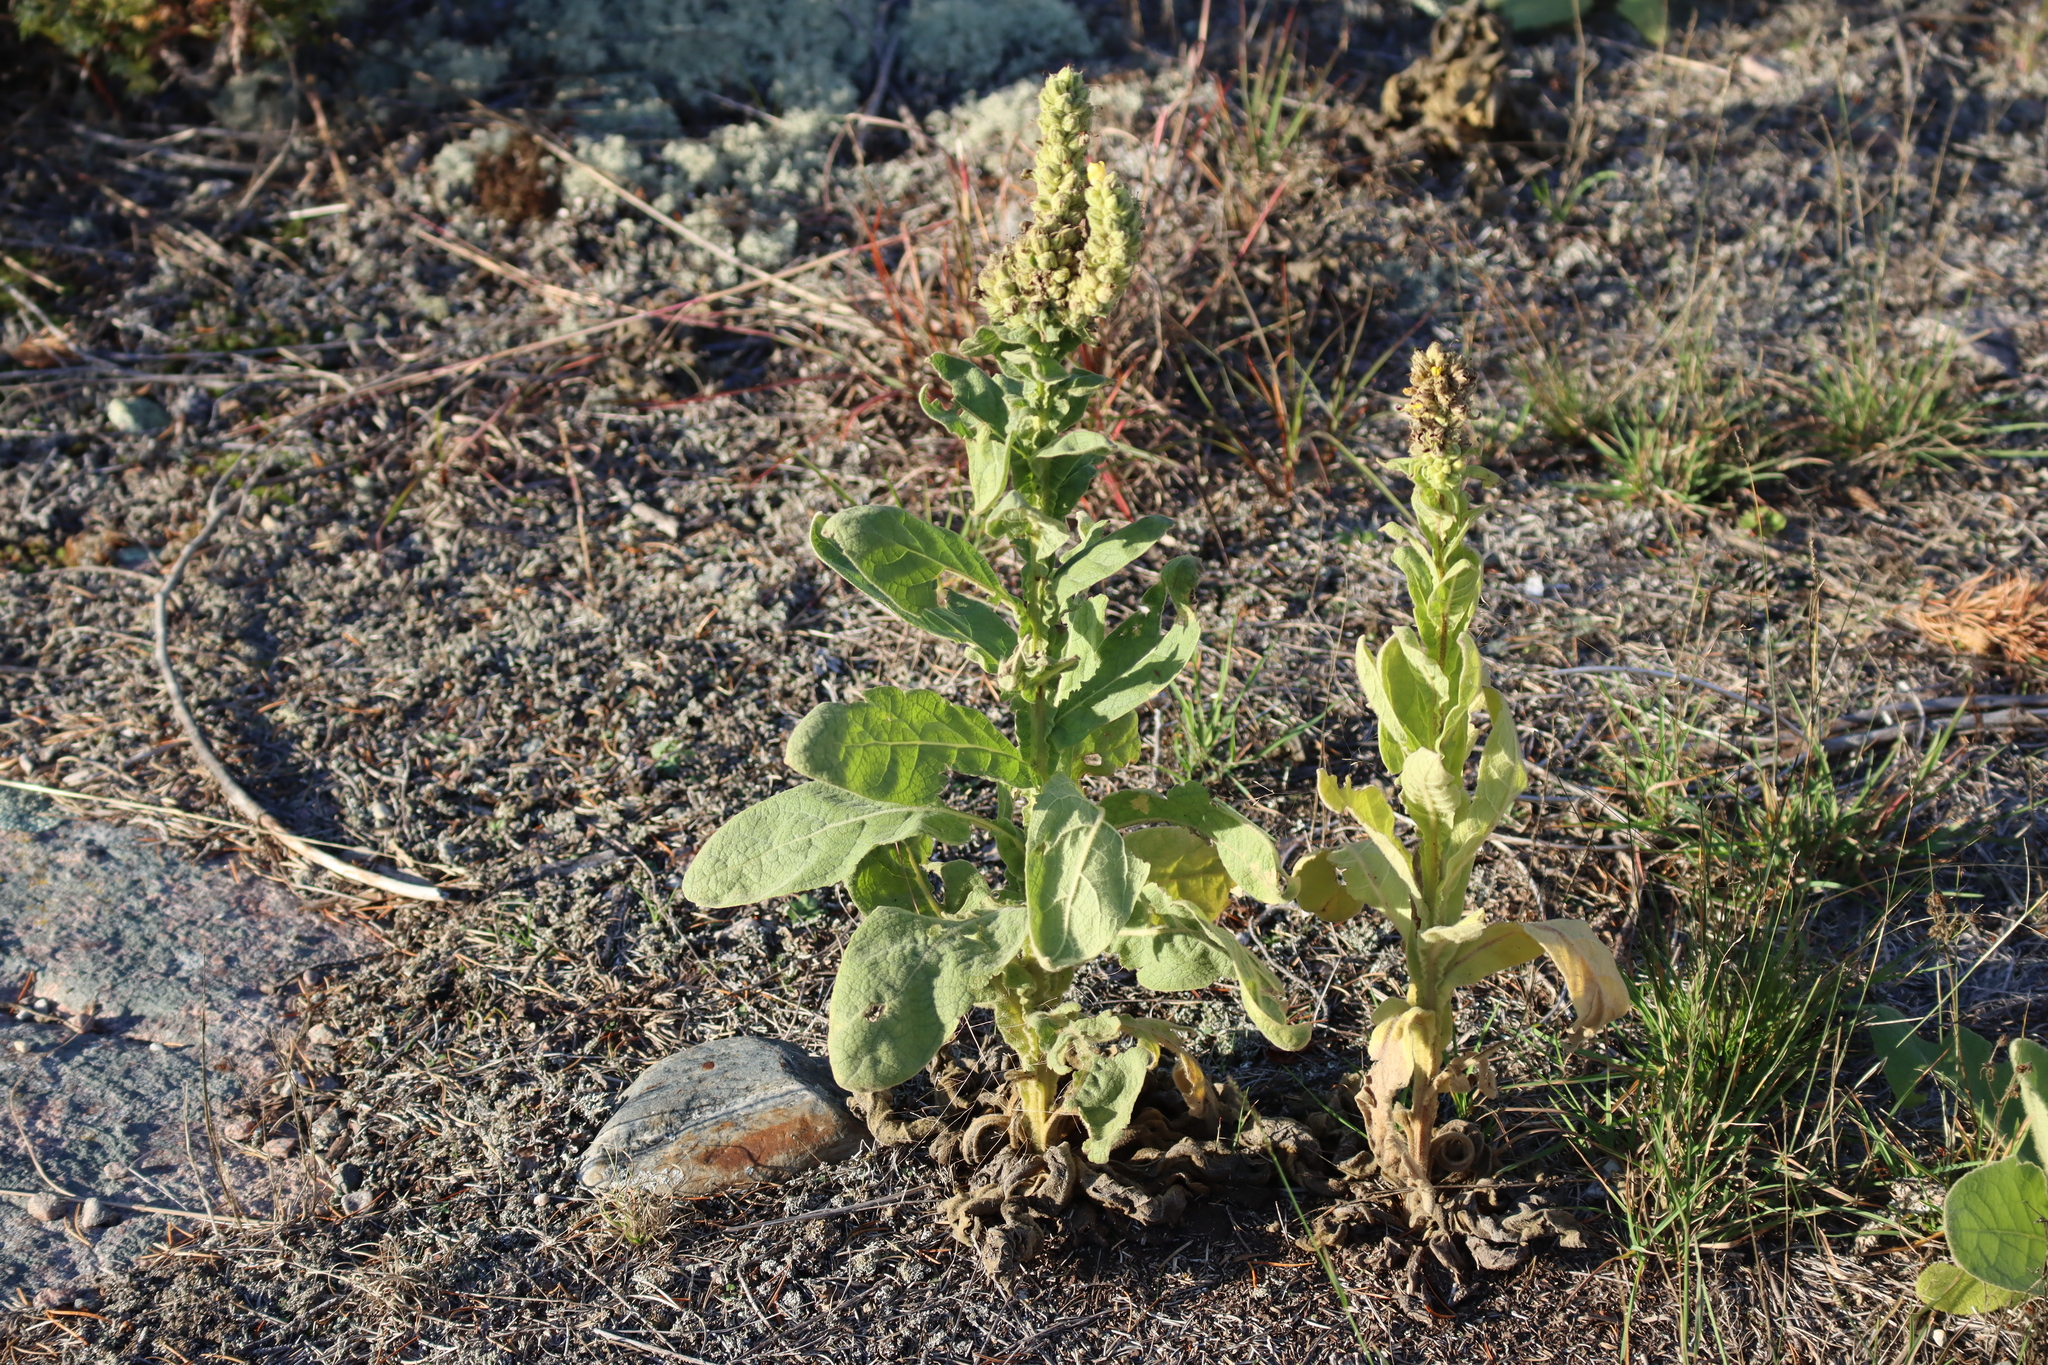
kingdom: Plantae
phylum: Tracheophyta
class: Magnoliopsida
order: Lamiales
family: Scrophulariaceae
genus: Verbascum
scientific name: Verbascum thapsus
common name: Common mullein
